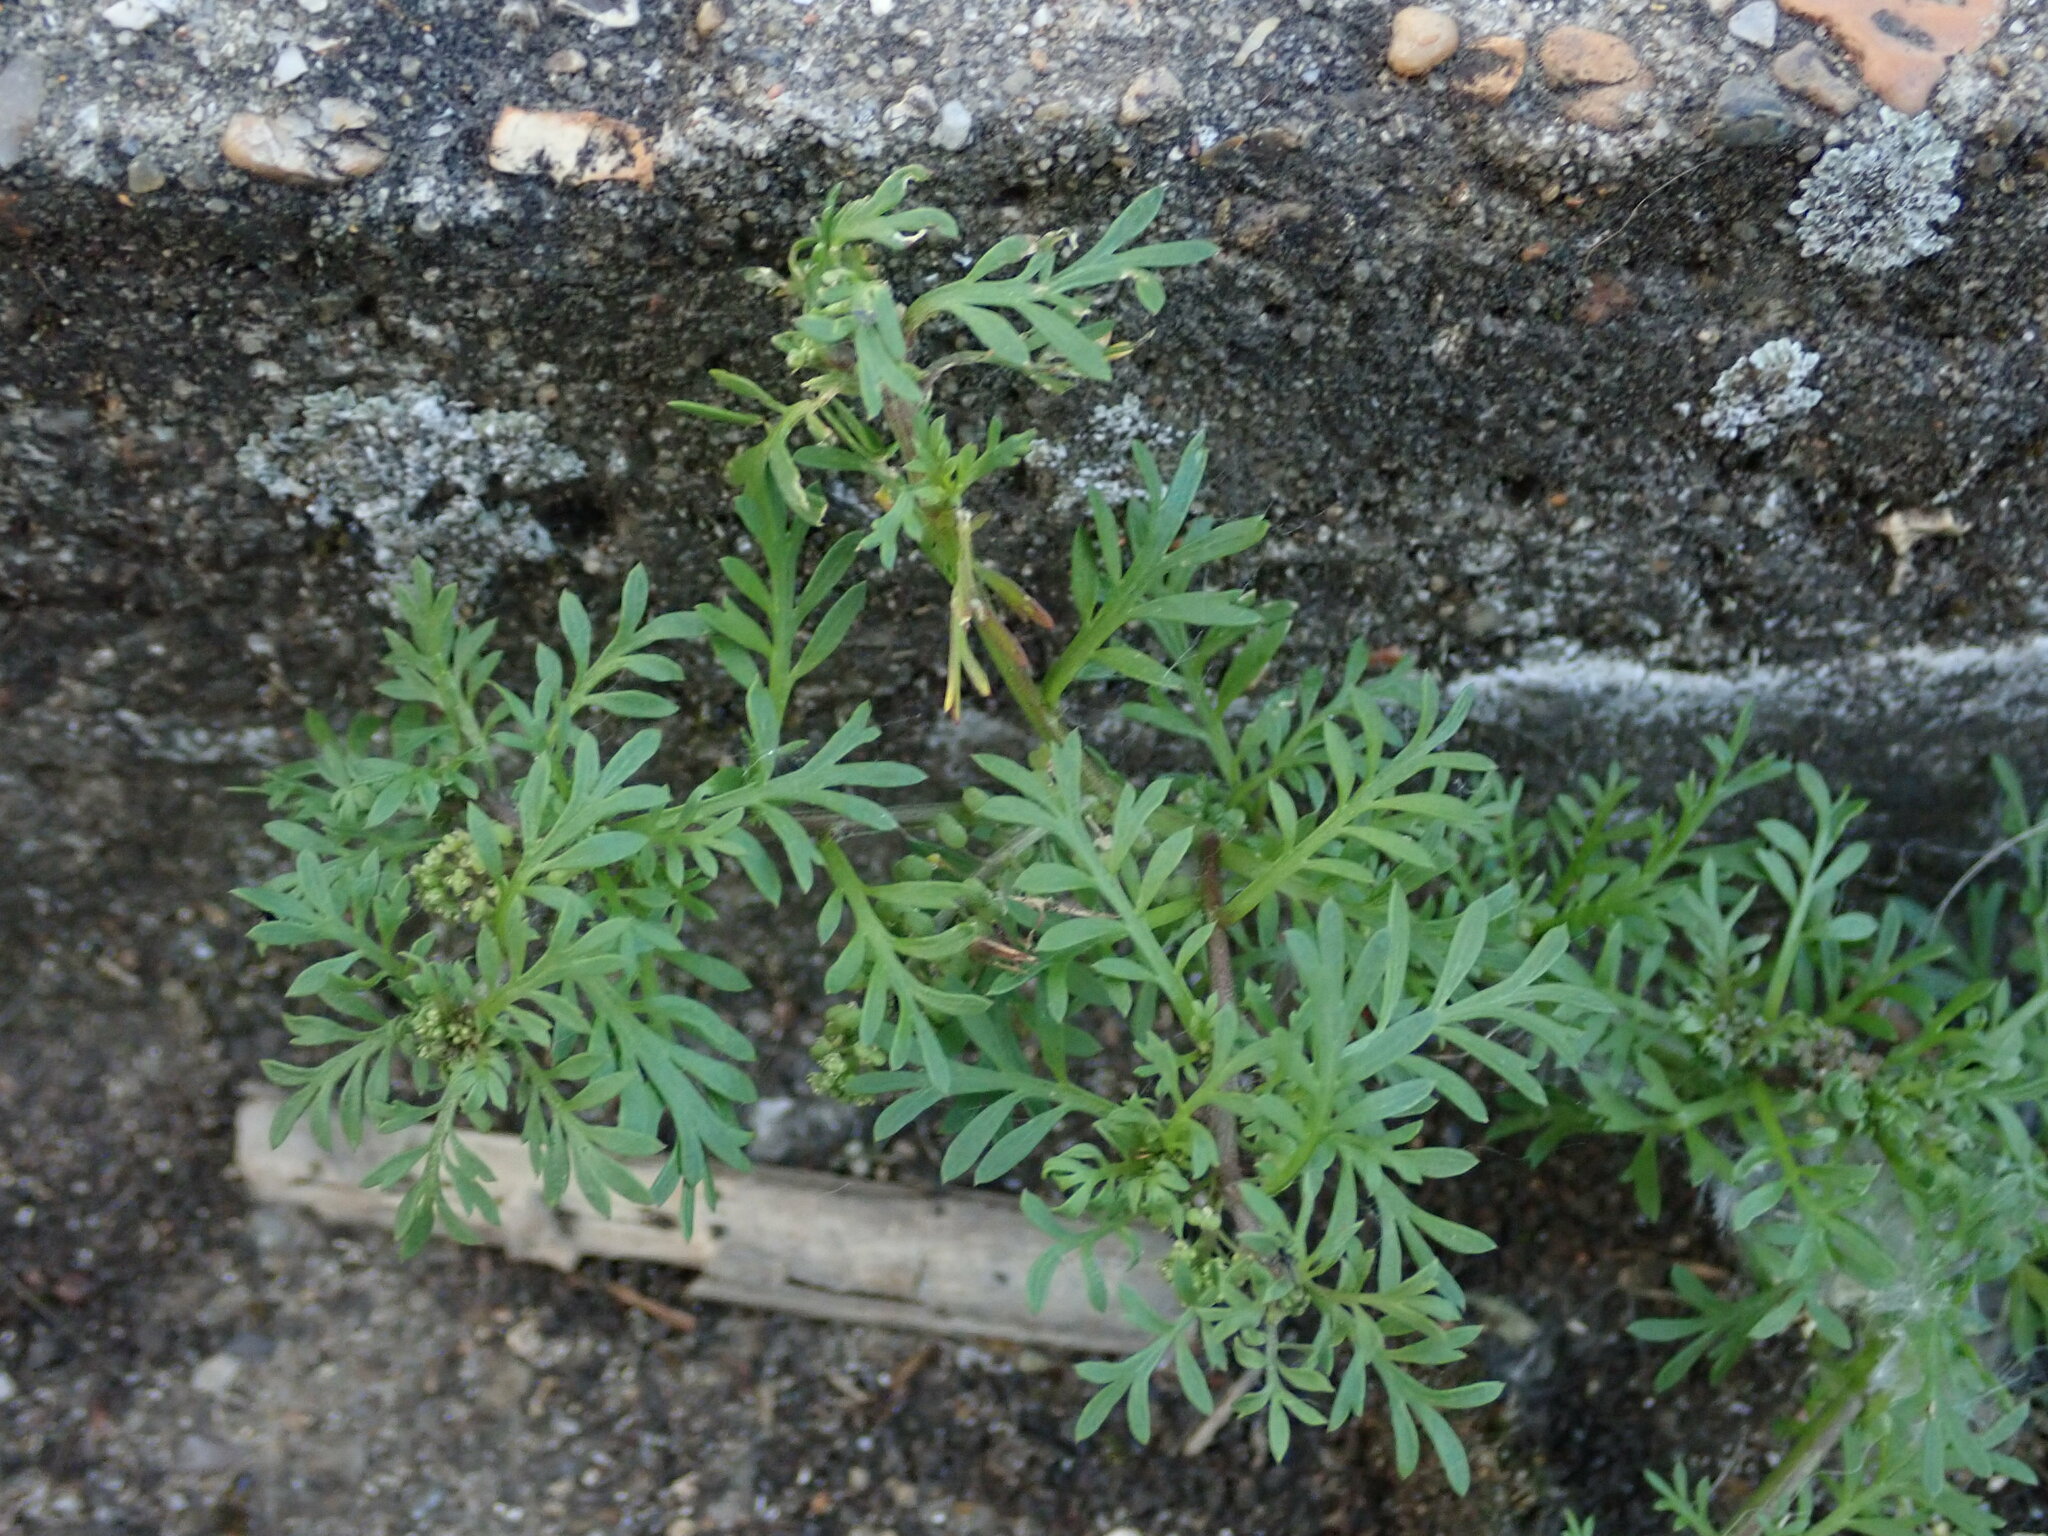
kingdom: Plantae
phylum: Tracheophyta
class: Magnoliopsida
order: Brassicales
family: Brassicaceae
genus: Lepidium
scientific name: Lepidium didymum
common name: Lesser swinecress
